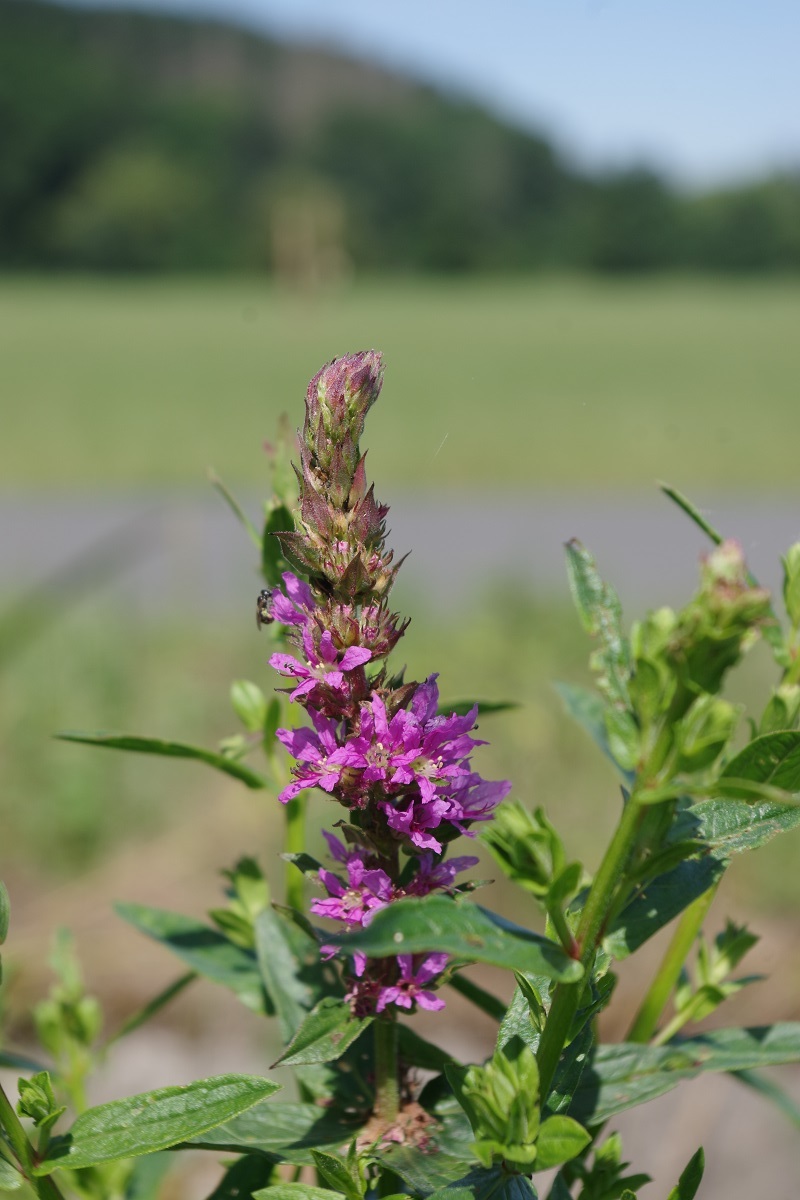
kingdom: Plantae
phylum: Tracheophyta
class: Magnoliopsida
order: Myrtales
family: Lythraceae
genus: Lythrum
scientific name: Lythrum salicaria
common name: Purple loosestrife
